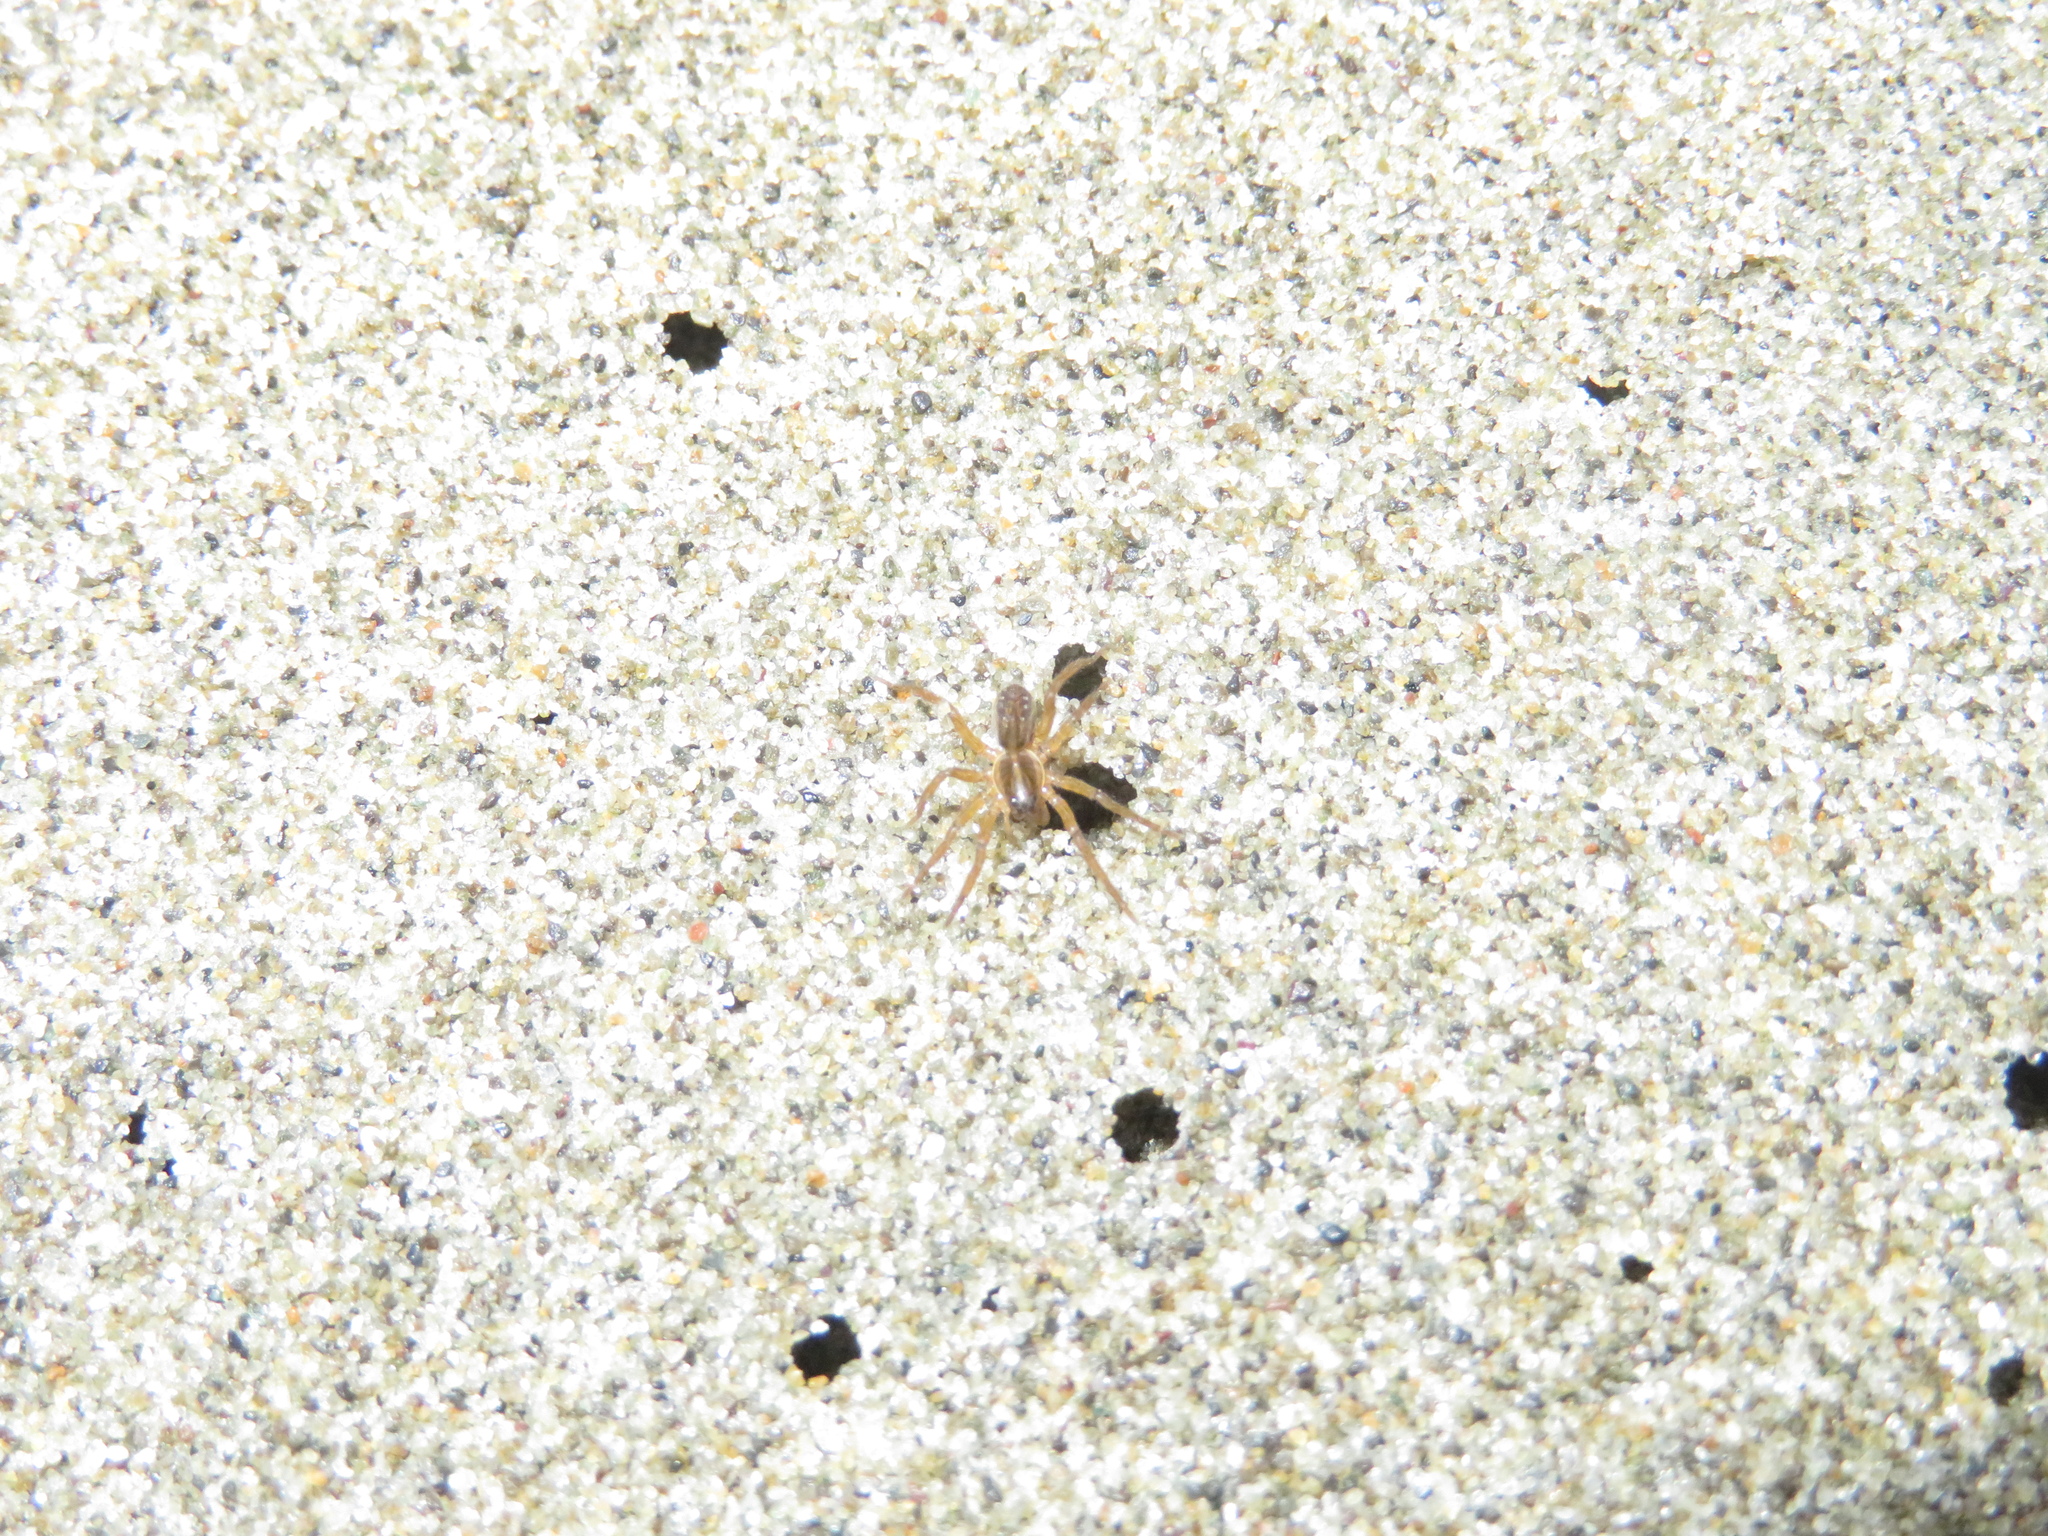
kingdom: Animalia
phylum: Arthropoda
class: Arachnida
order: Araneae
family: Lycosidae
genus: Allotrochosina
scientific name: Allotrochosina schauinslandi
